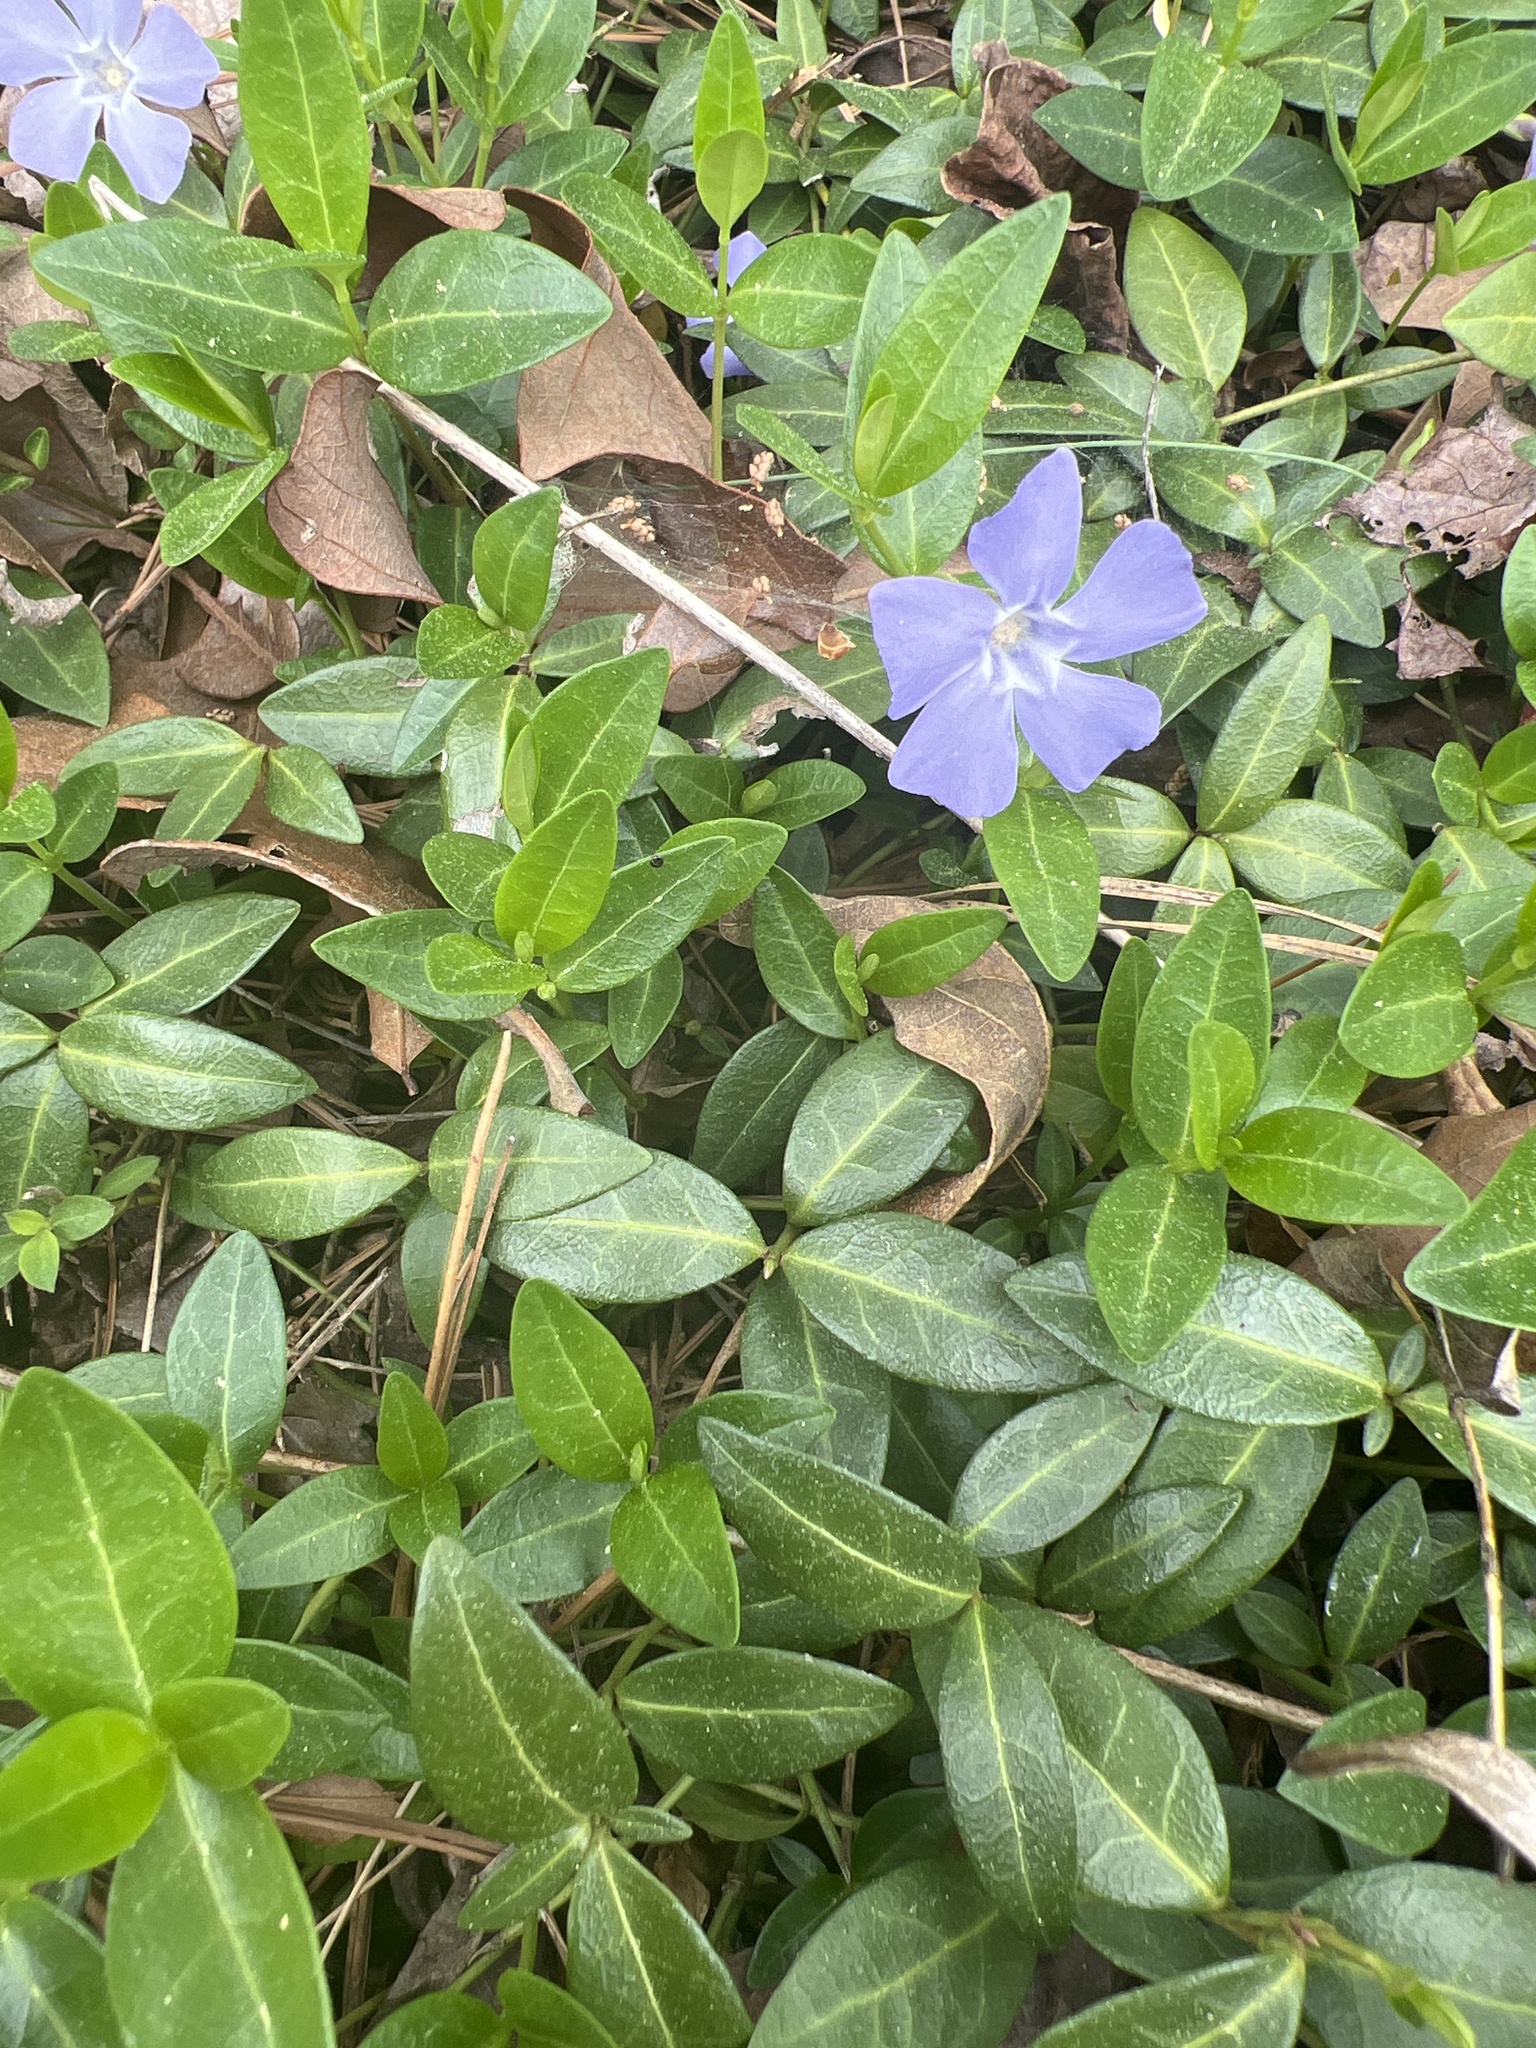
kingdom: Plantae
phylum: Tracheophyta
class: Magnoliopsida
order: Gentianales
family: Apocynaceae
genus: Vinca
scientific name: Vinca minor
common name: Lesser periwinkle
